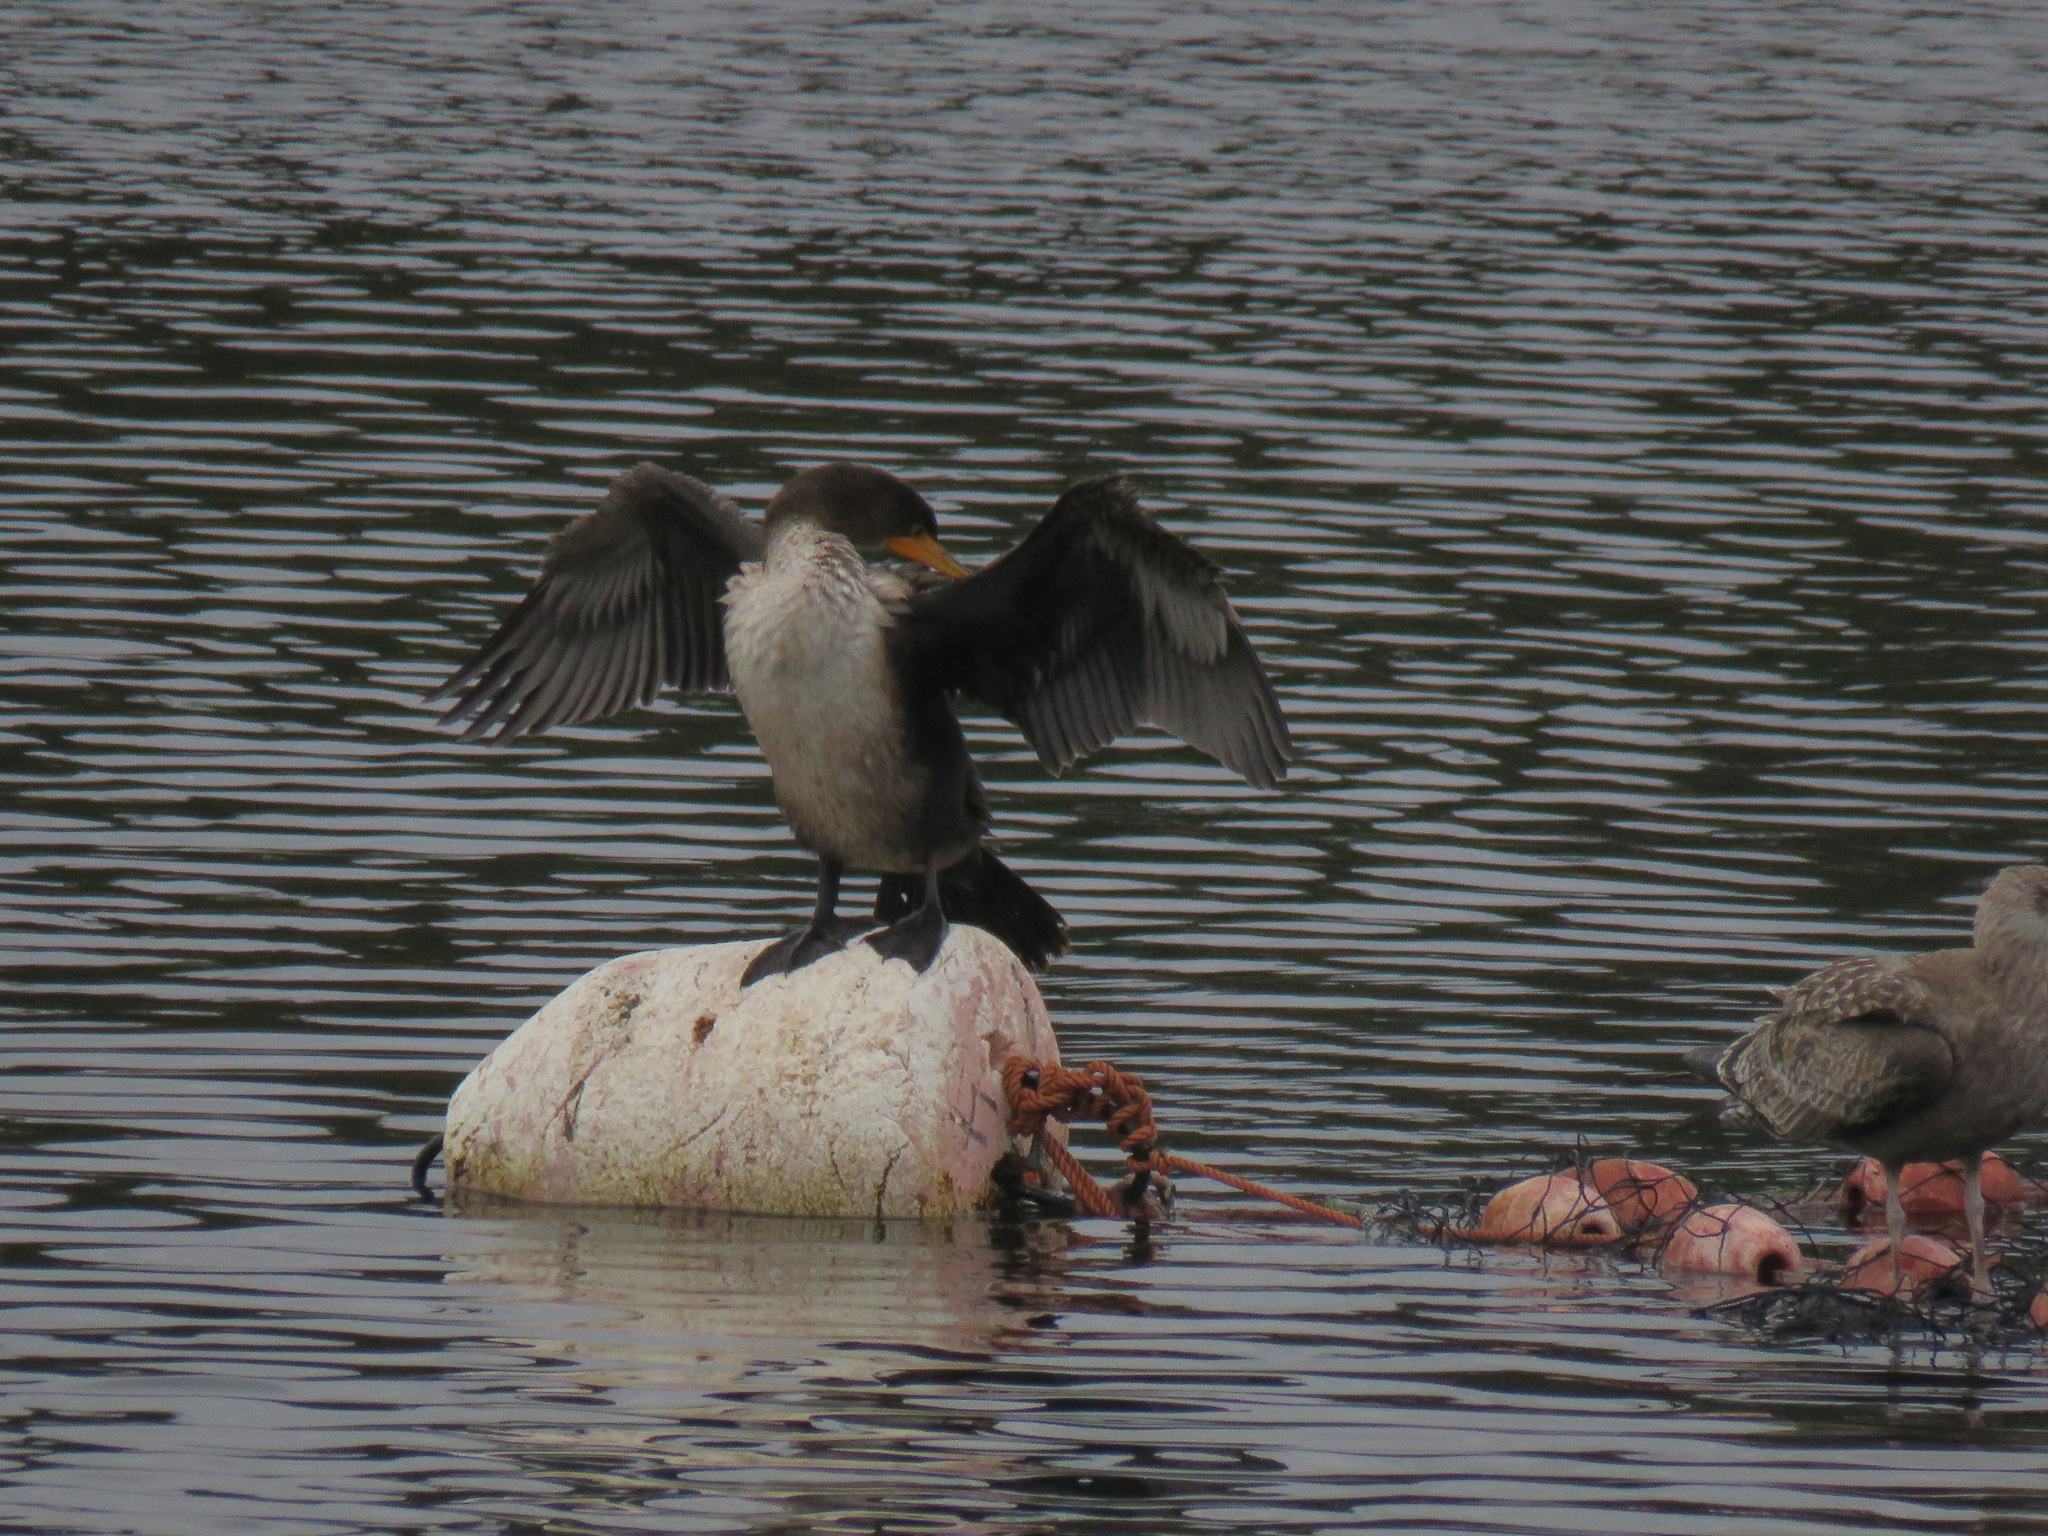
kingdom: Animalia
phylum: Chordata
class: Aves
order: Suliformes
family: Phalacrocoracidae
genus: Phalacrocorax
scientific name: Phalacrocorax auritus
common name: Double-crested cormorant
